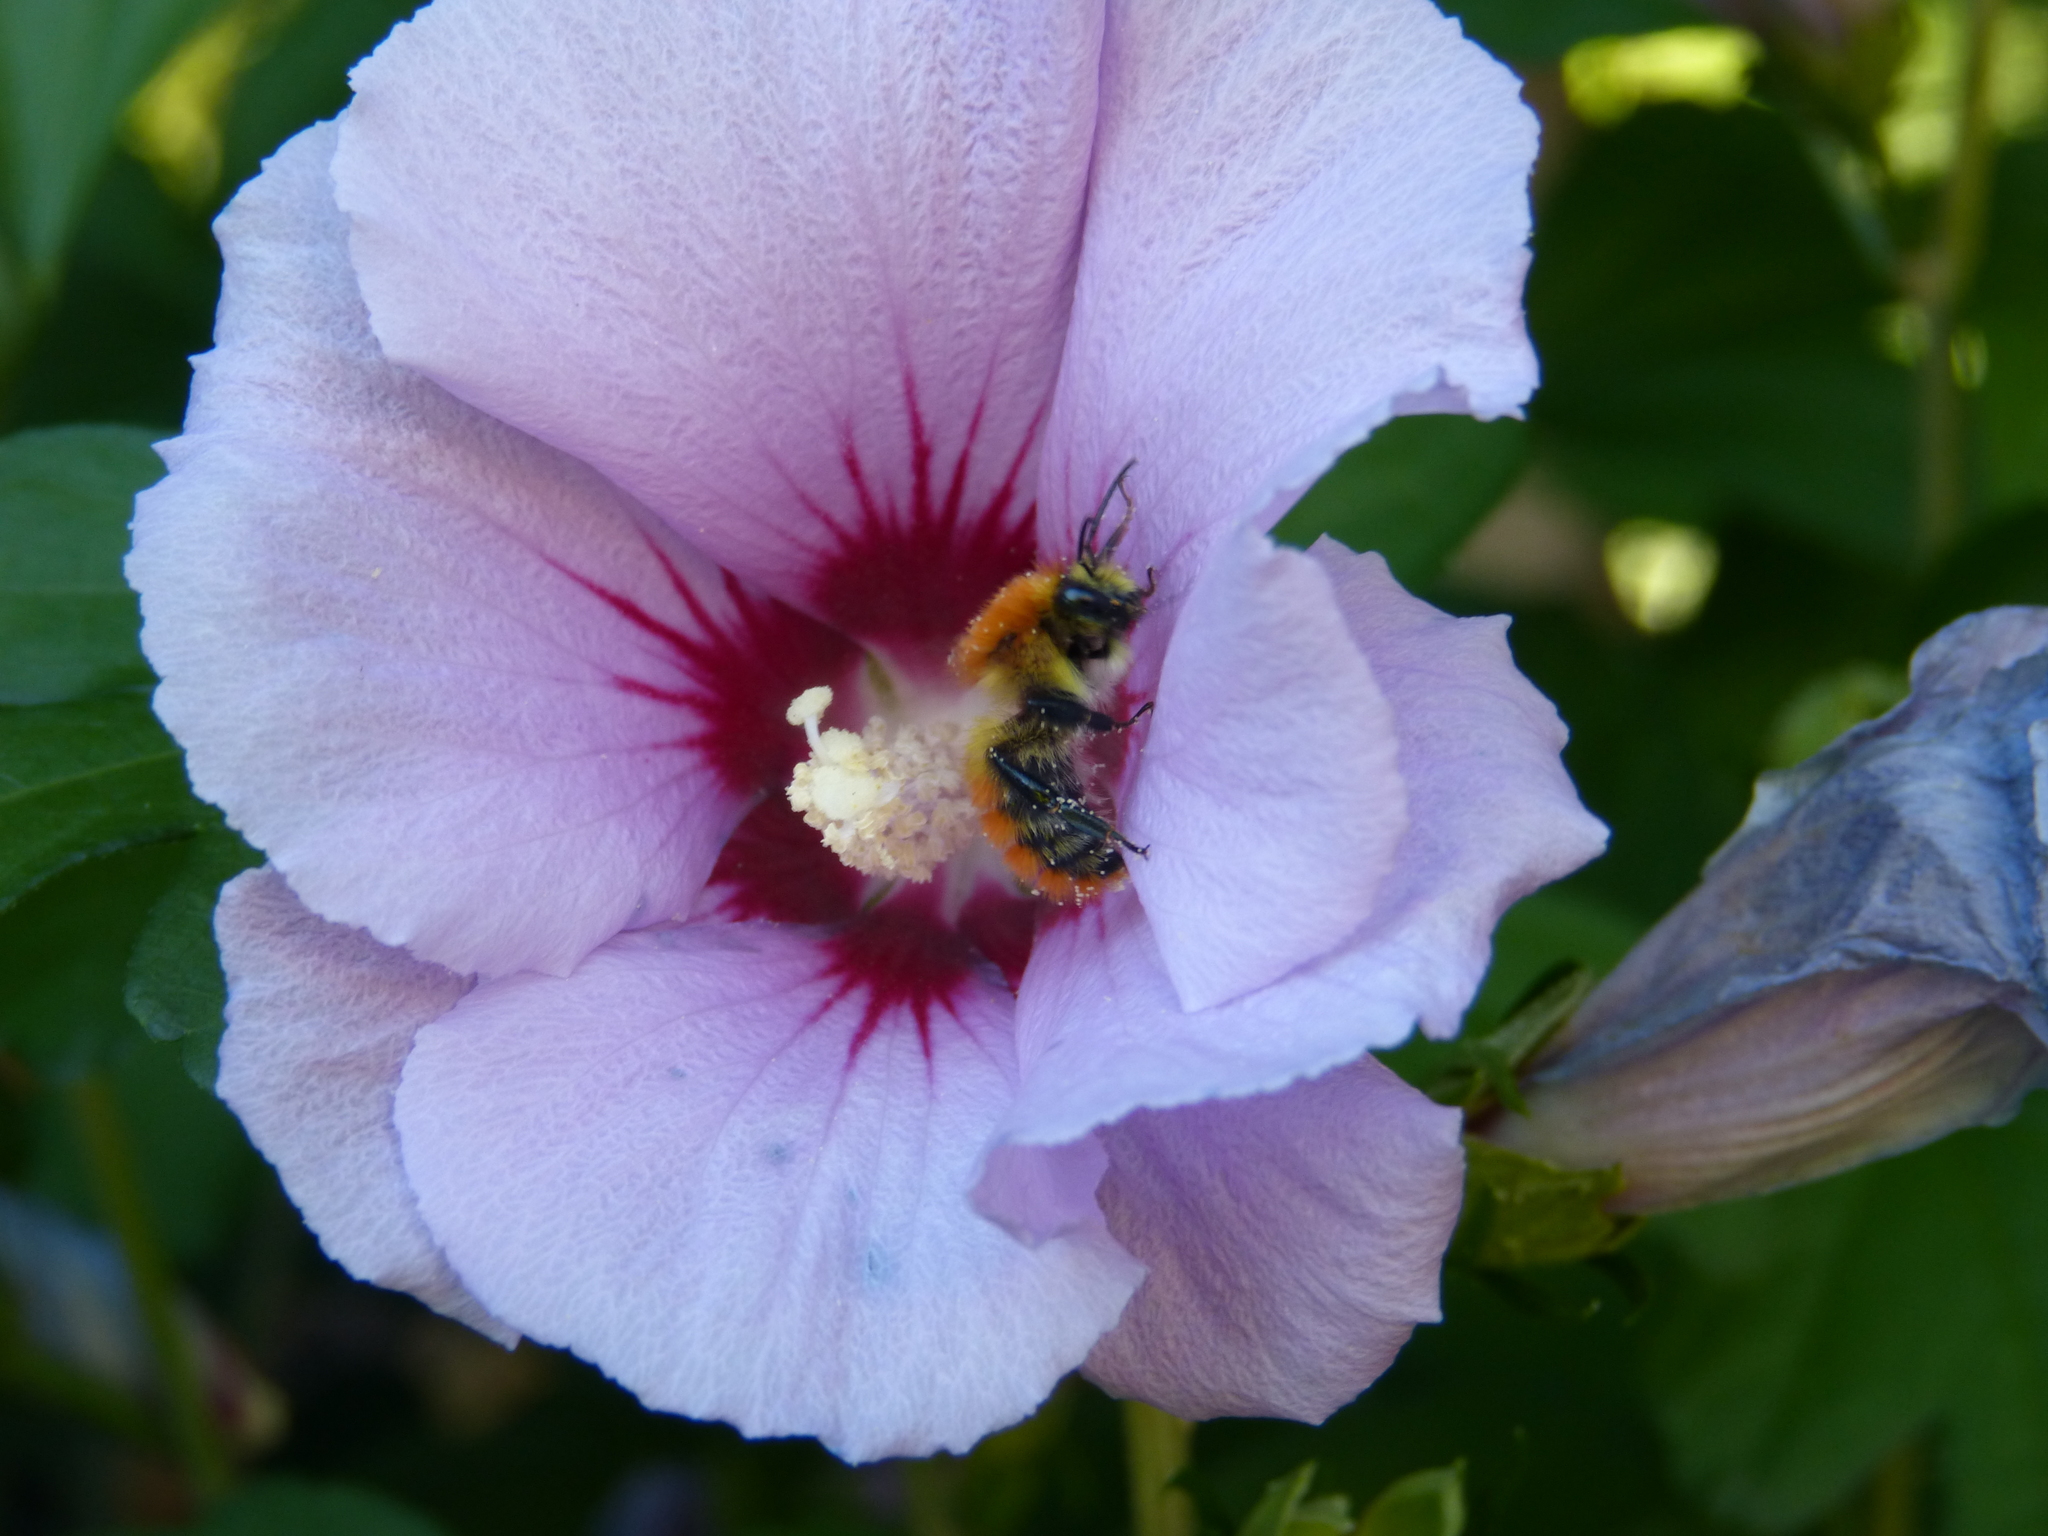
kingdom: Animalia
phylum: Arthropoda
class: Insecta
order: Hymenoptera
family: Apidae
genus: Bombus
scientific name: Bombus pascuorum
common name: Common carder bee
